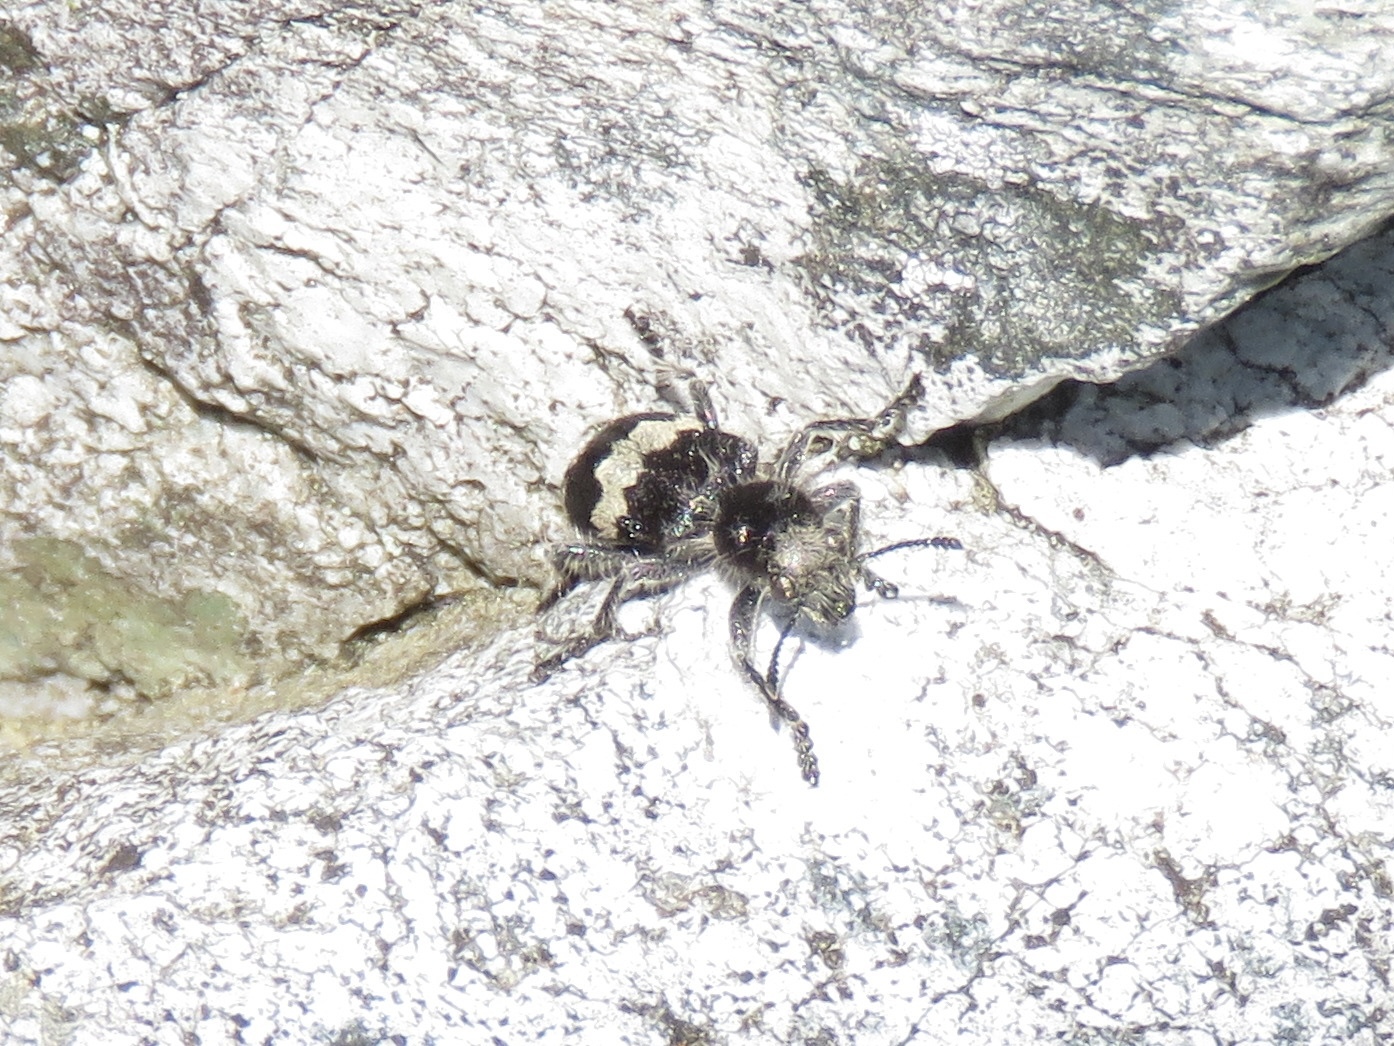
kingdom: Animalia
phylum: Arthropoda
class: Insecta
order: Coleoptera
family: Cleridae
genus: Enoclerus
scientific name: Enoclerus sphegeus
